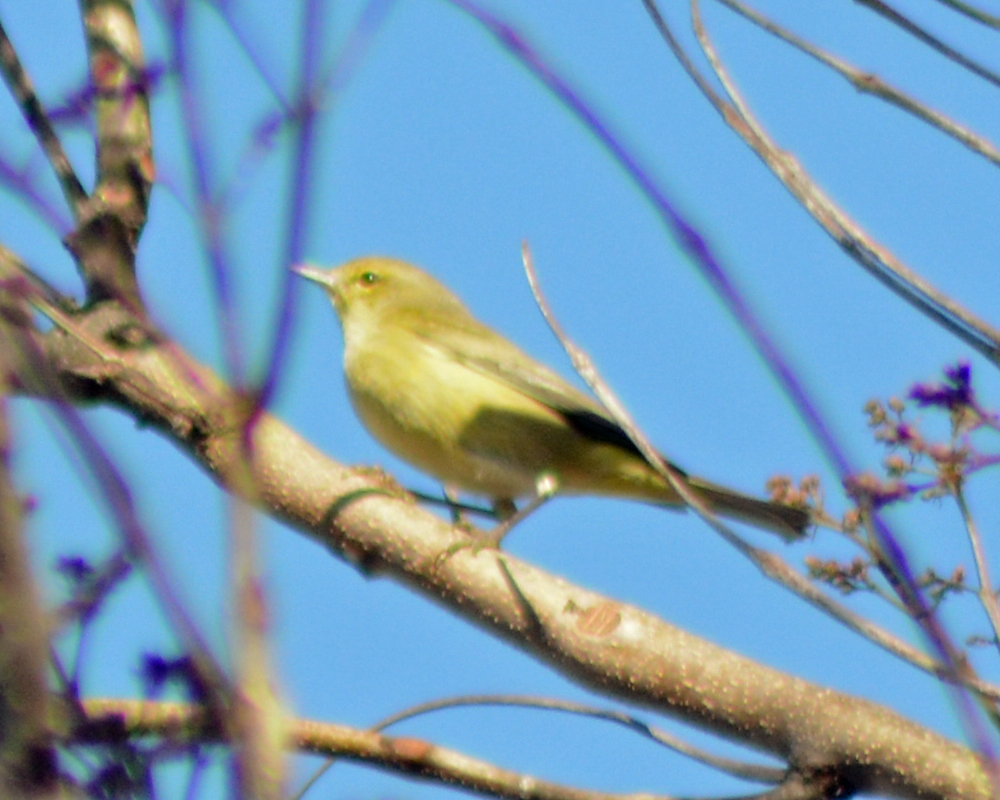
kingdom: Animalia
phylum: Chordata
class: Aves
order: Passeriformes
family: Parulidae
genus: Leiothlypis
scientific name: Leiothlypis celata
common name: Orange-crowned warbler
